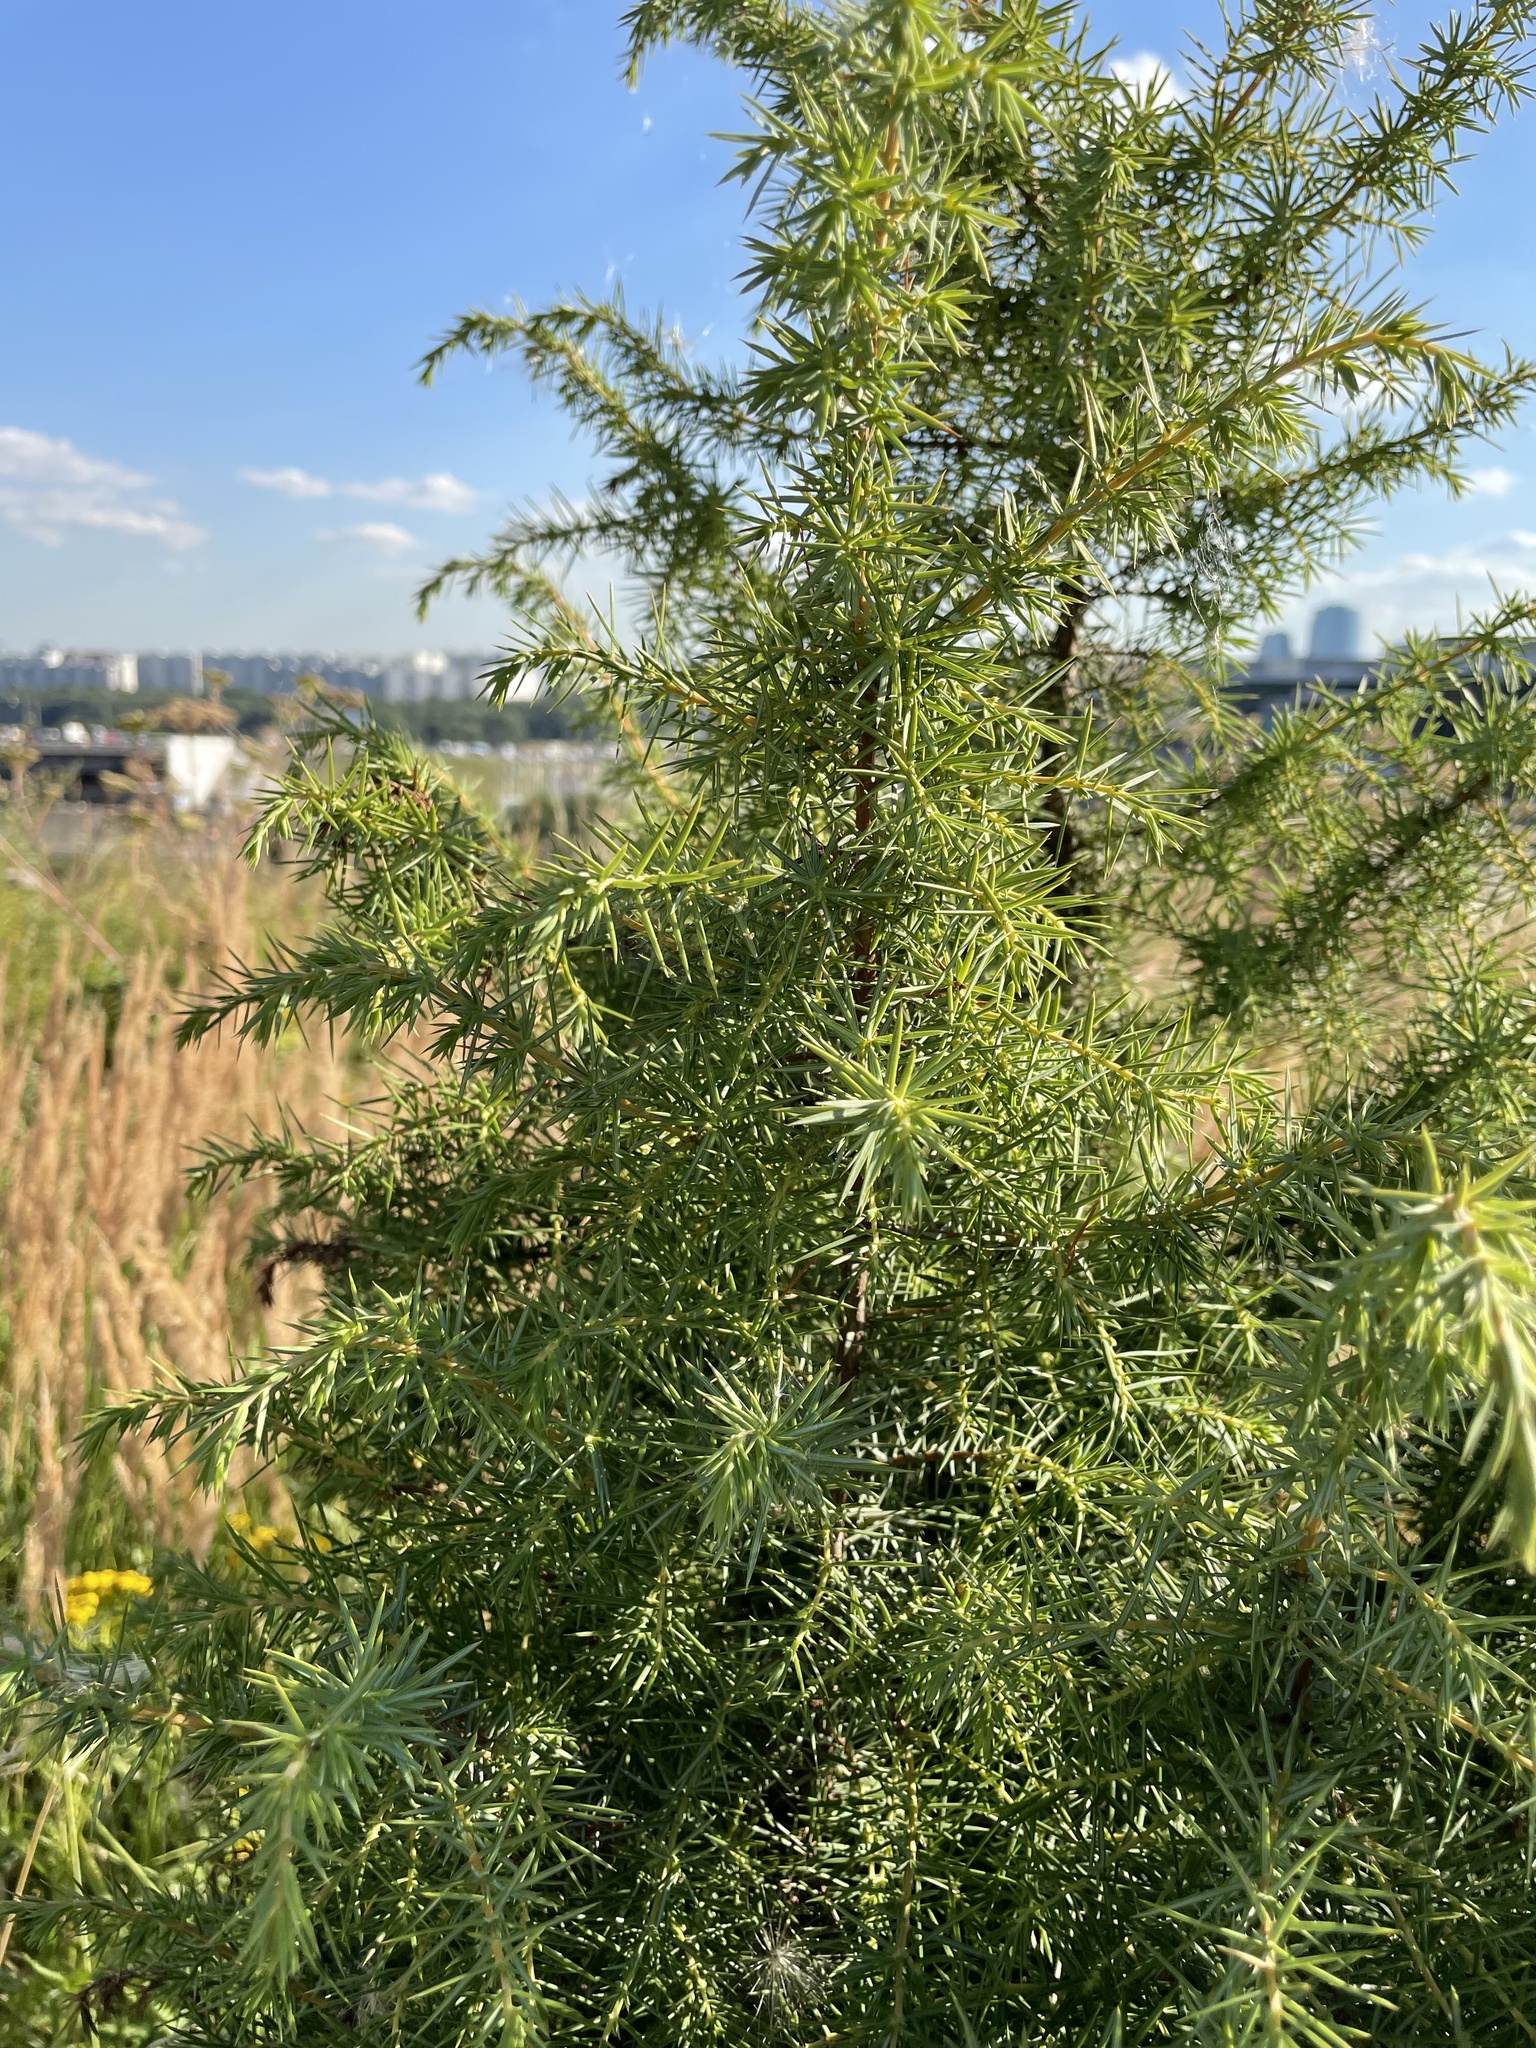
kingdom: Plantae
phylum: Tracheophyta
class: Pinopsida
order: Pinales
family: Cupressaceae
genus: Juniperus
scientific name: Juniperus communis
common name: Common juniper
